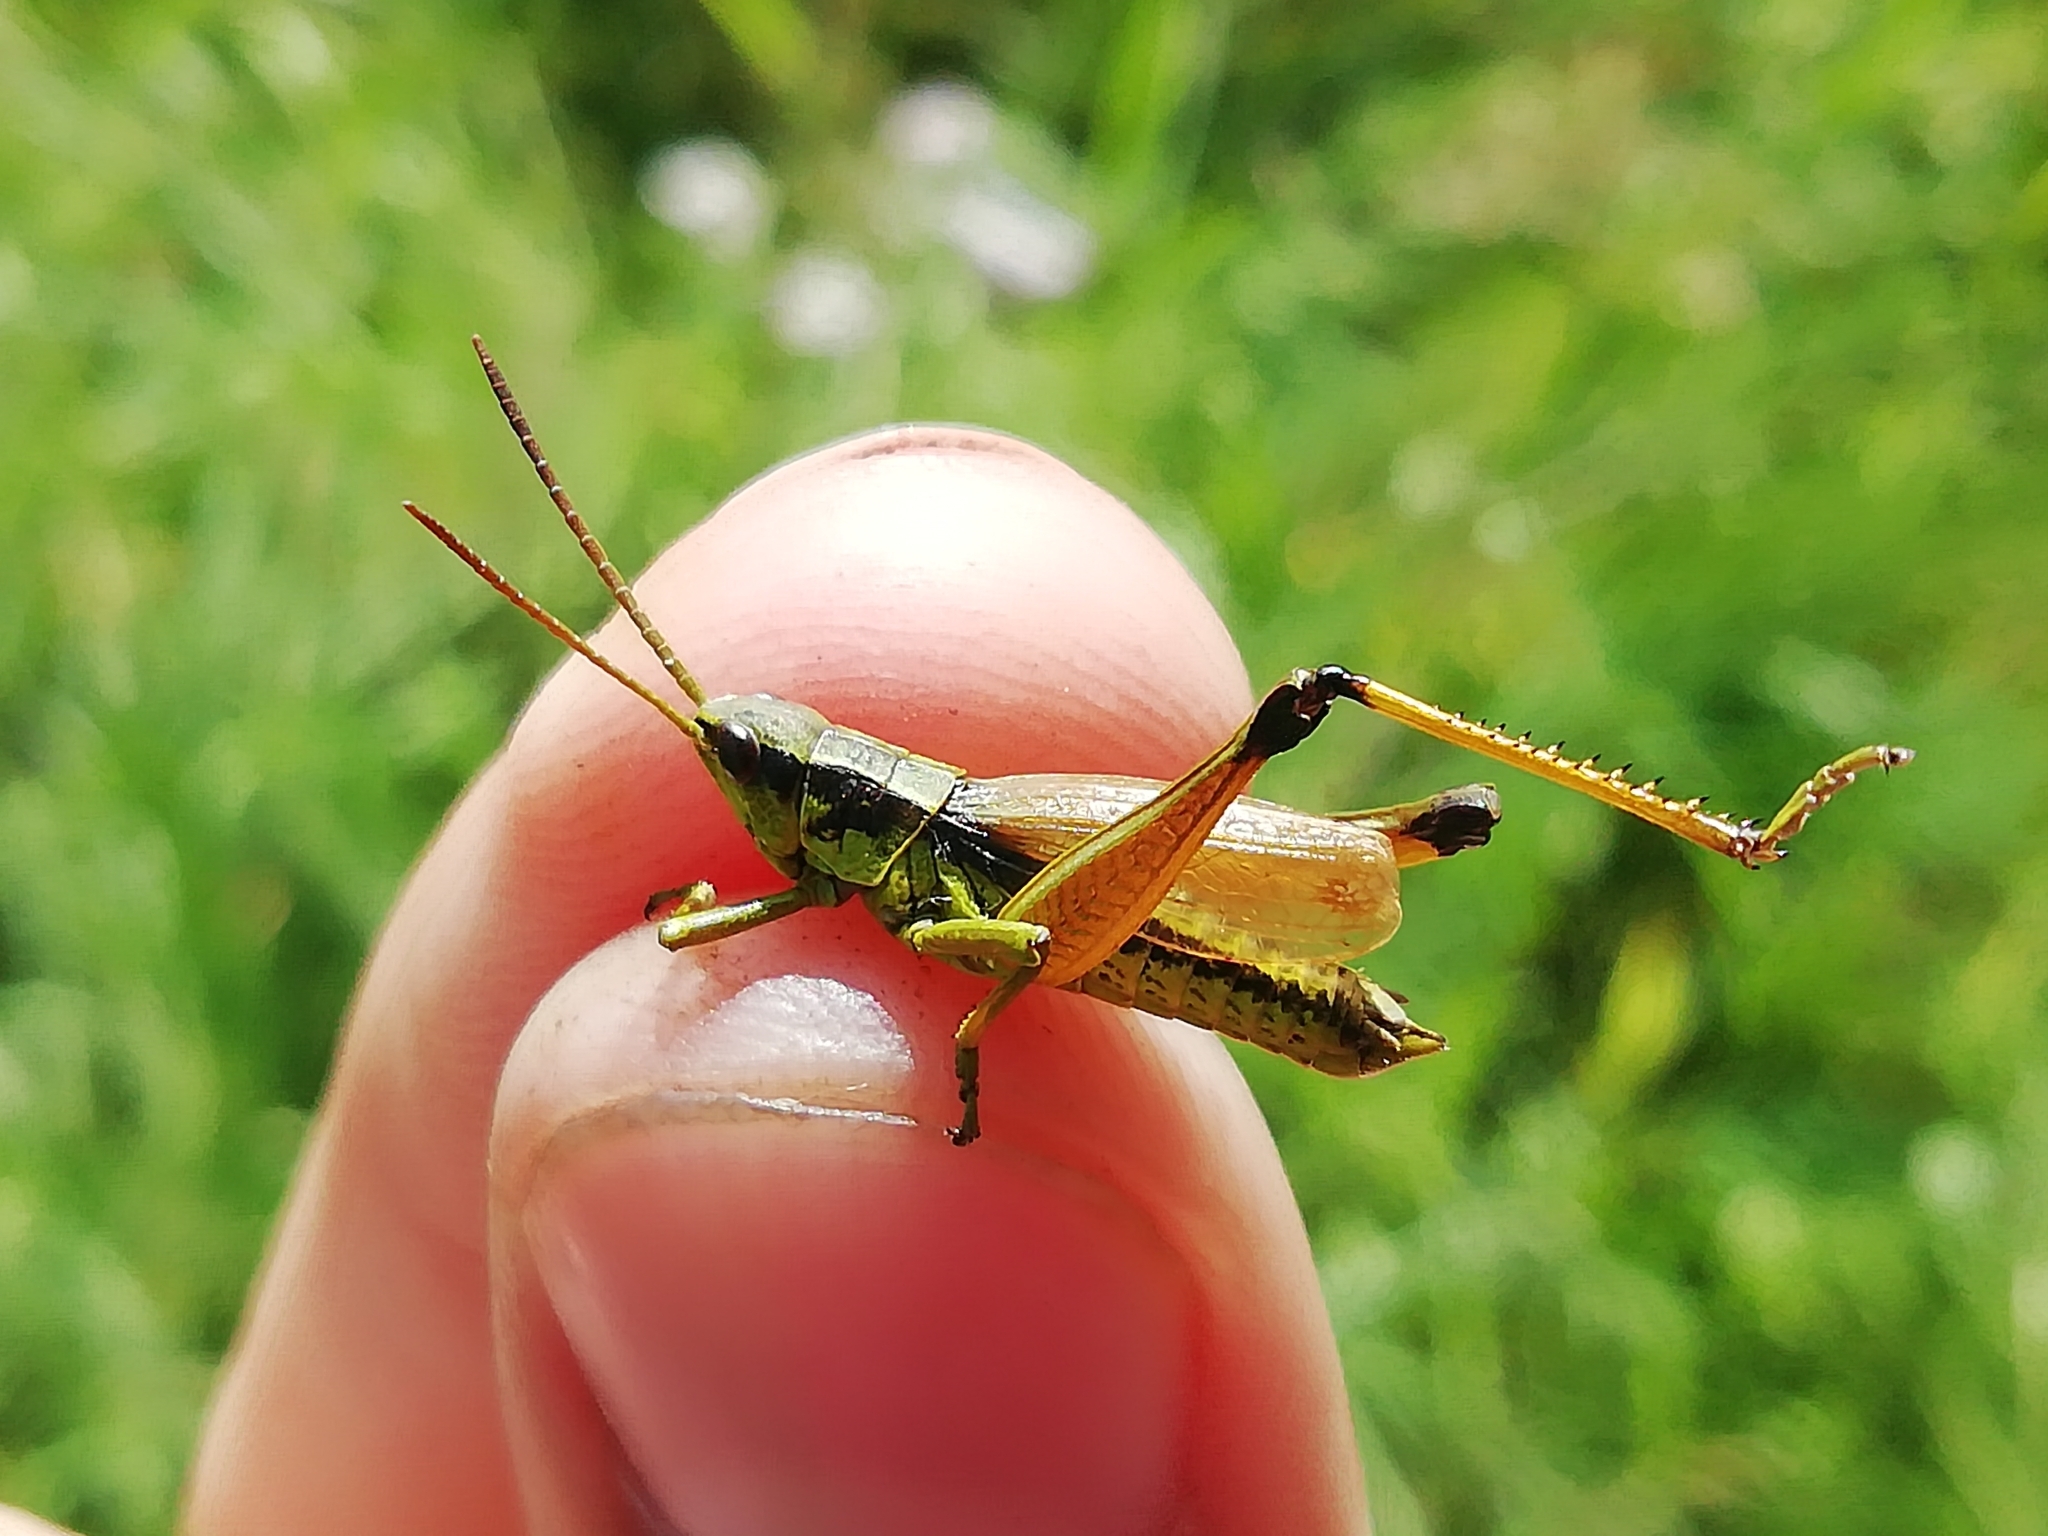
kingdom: Animalia
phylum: Arthropoda
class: Insecta
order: Orthoptera
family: Acrididae
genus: Podismopsis
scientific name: Podismopsis poppiusi
